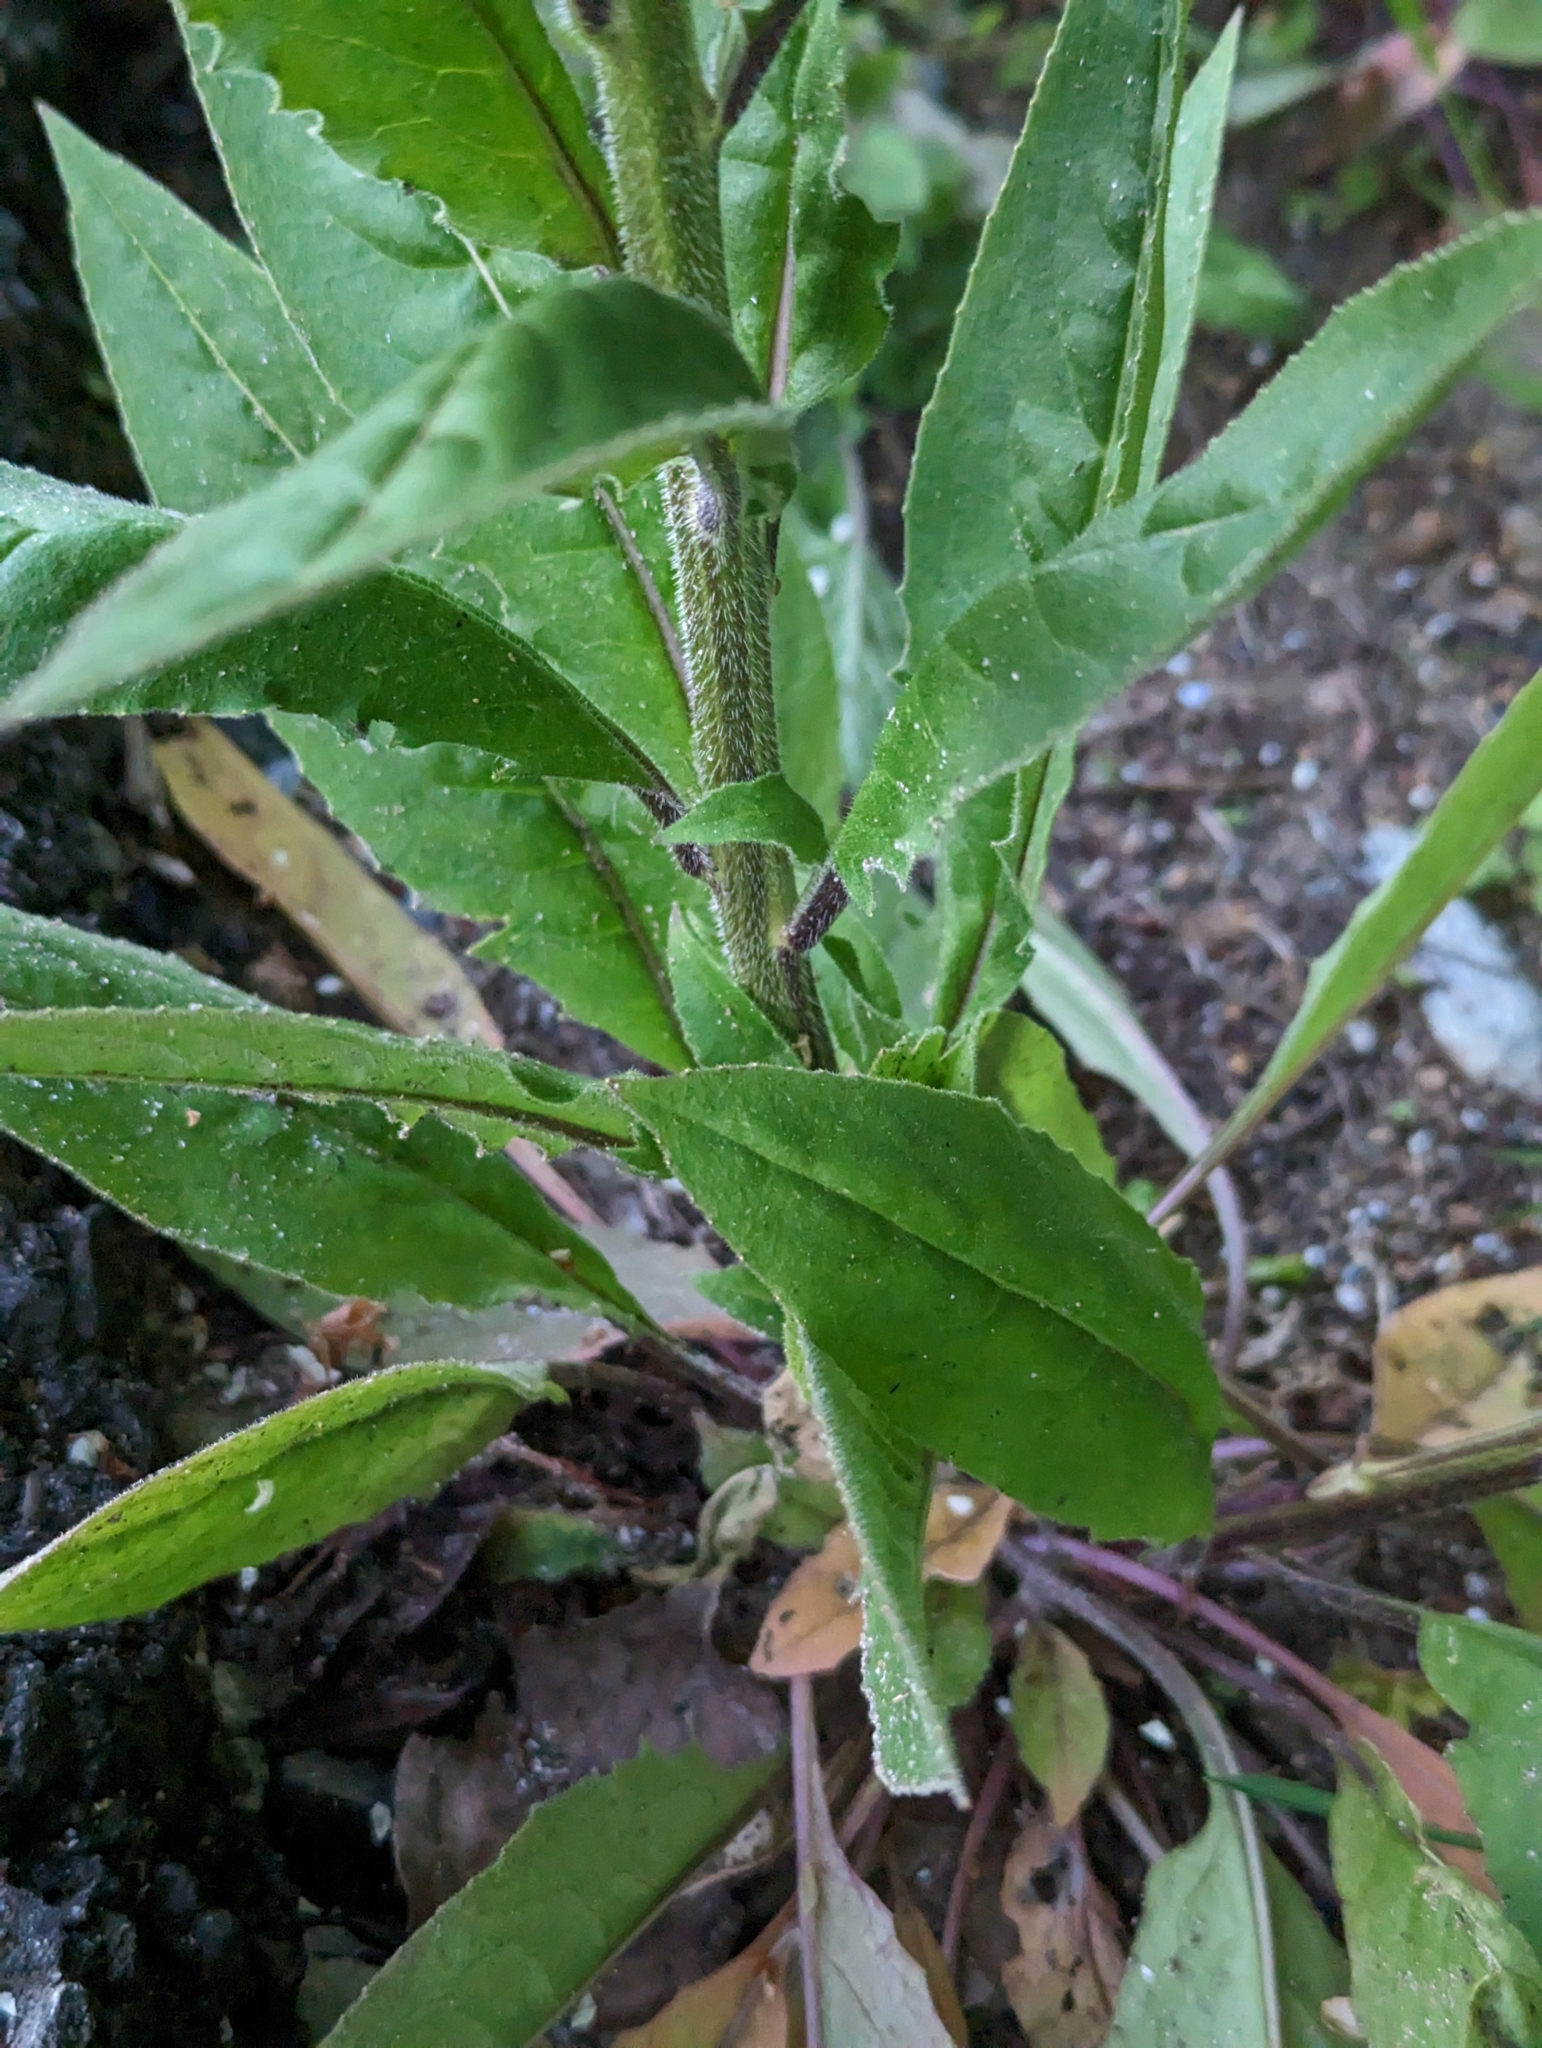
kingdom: Plantae
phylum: Tracheophyta
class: Magnoliopsida
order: Brassicales
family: Brassicaceae
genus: Hesperis
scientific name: Hesperis matronalis
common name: Dame's-violet
